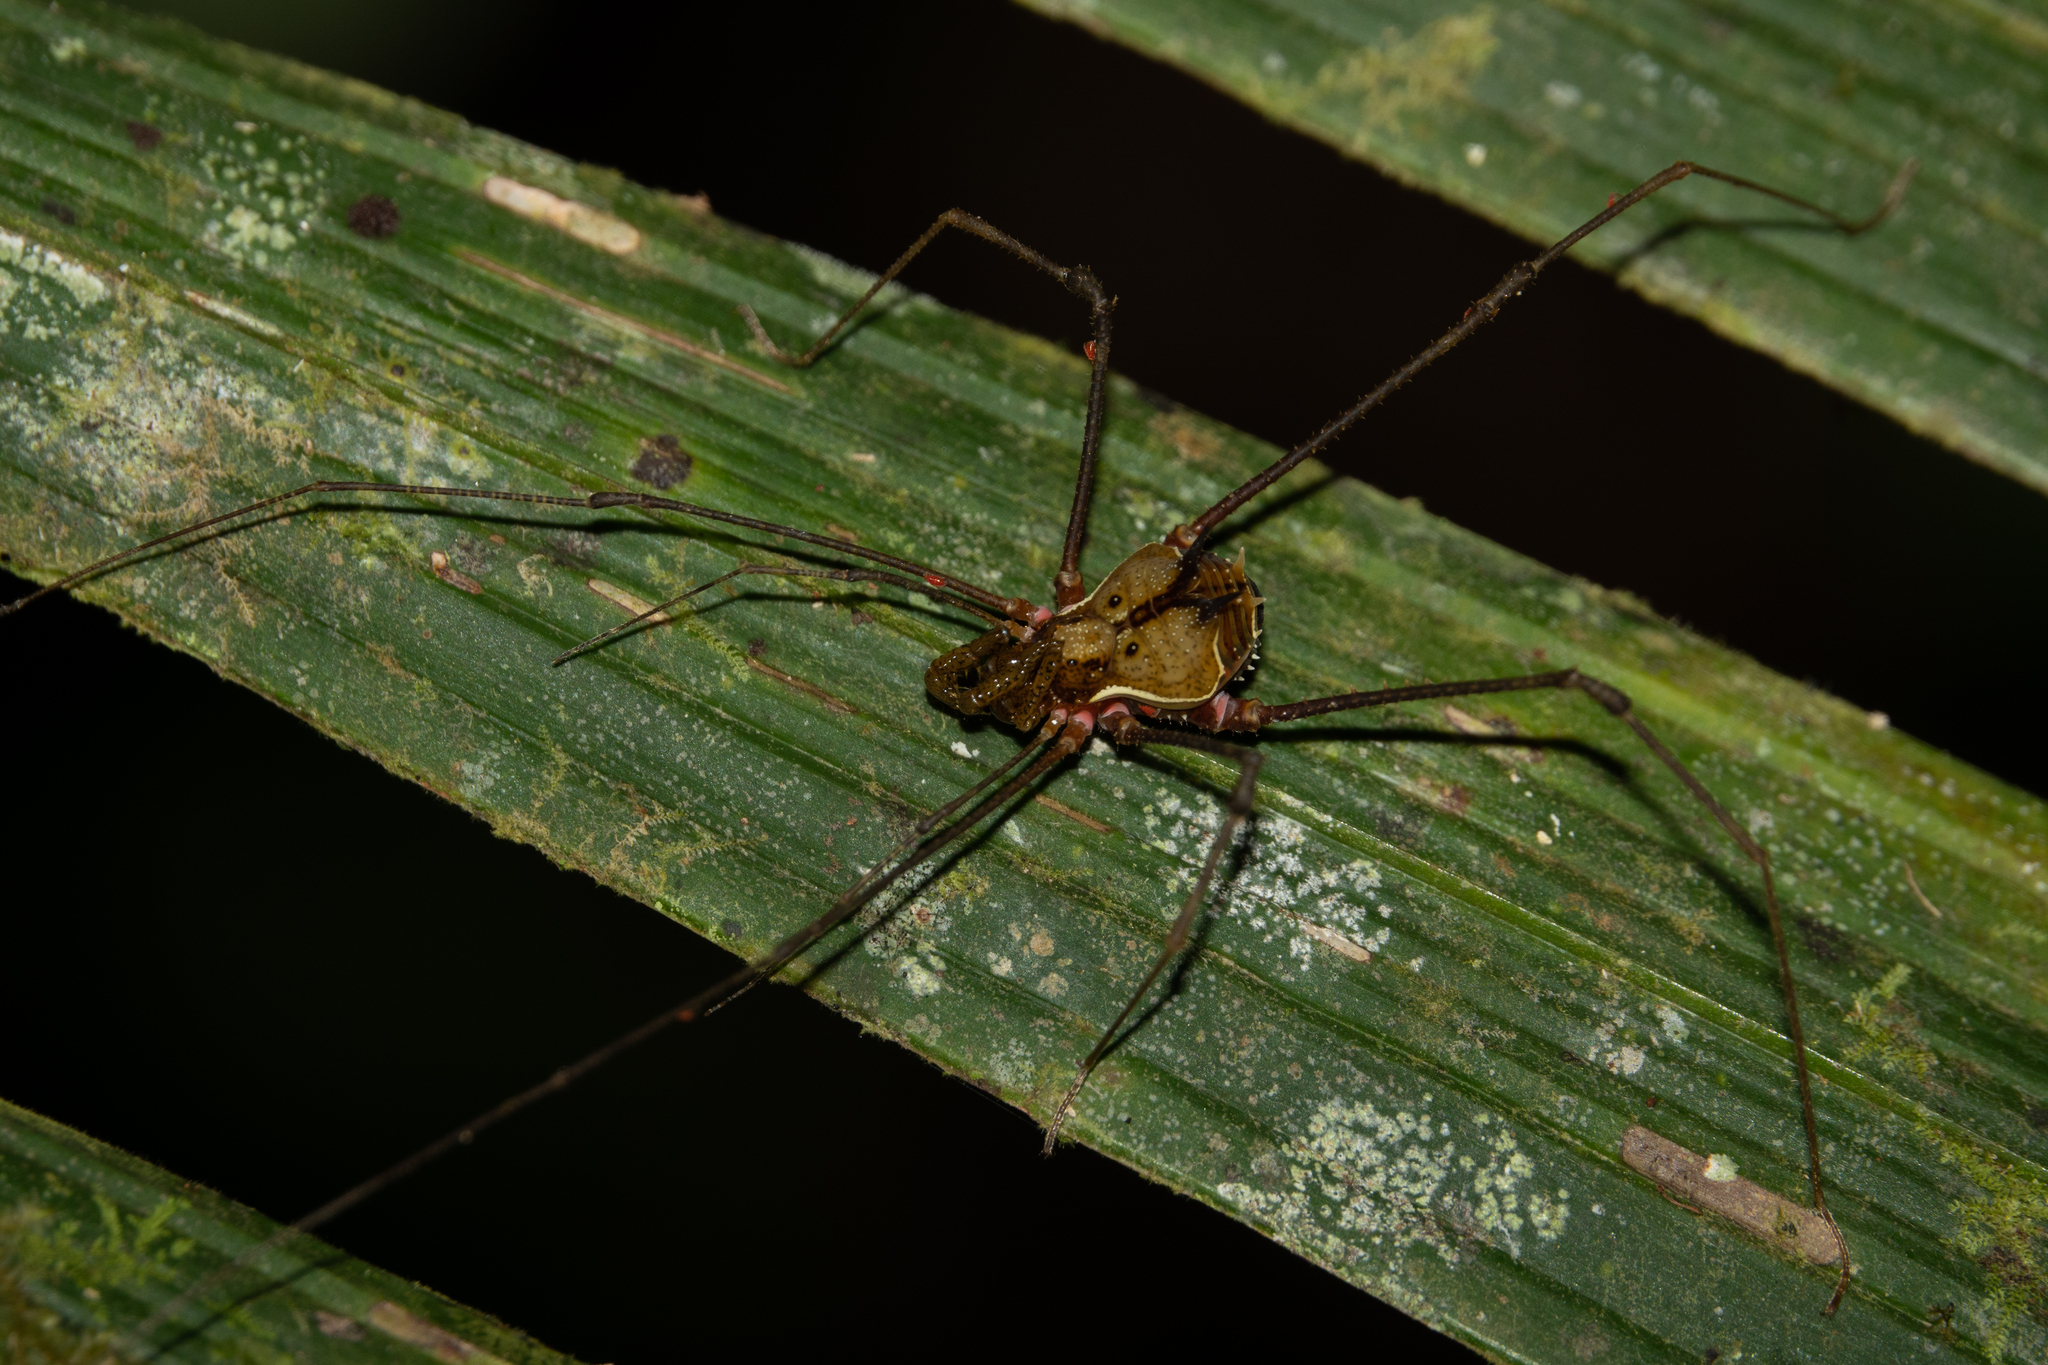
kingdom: Animalia
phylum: Arthropoda
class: Arachnida
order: Opiliones
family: Cranaidae
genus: Ventrivomer
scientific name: Ventrivomer ancyrophorus
